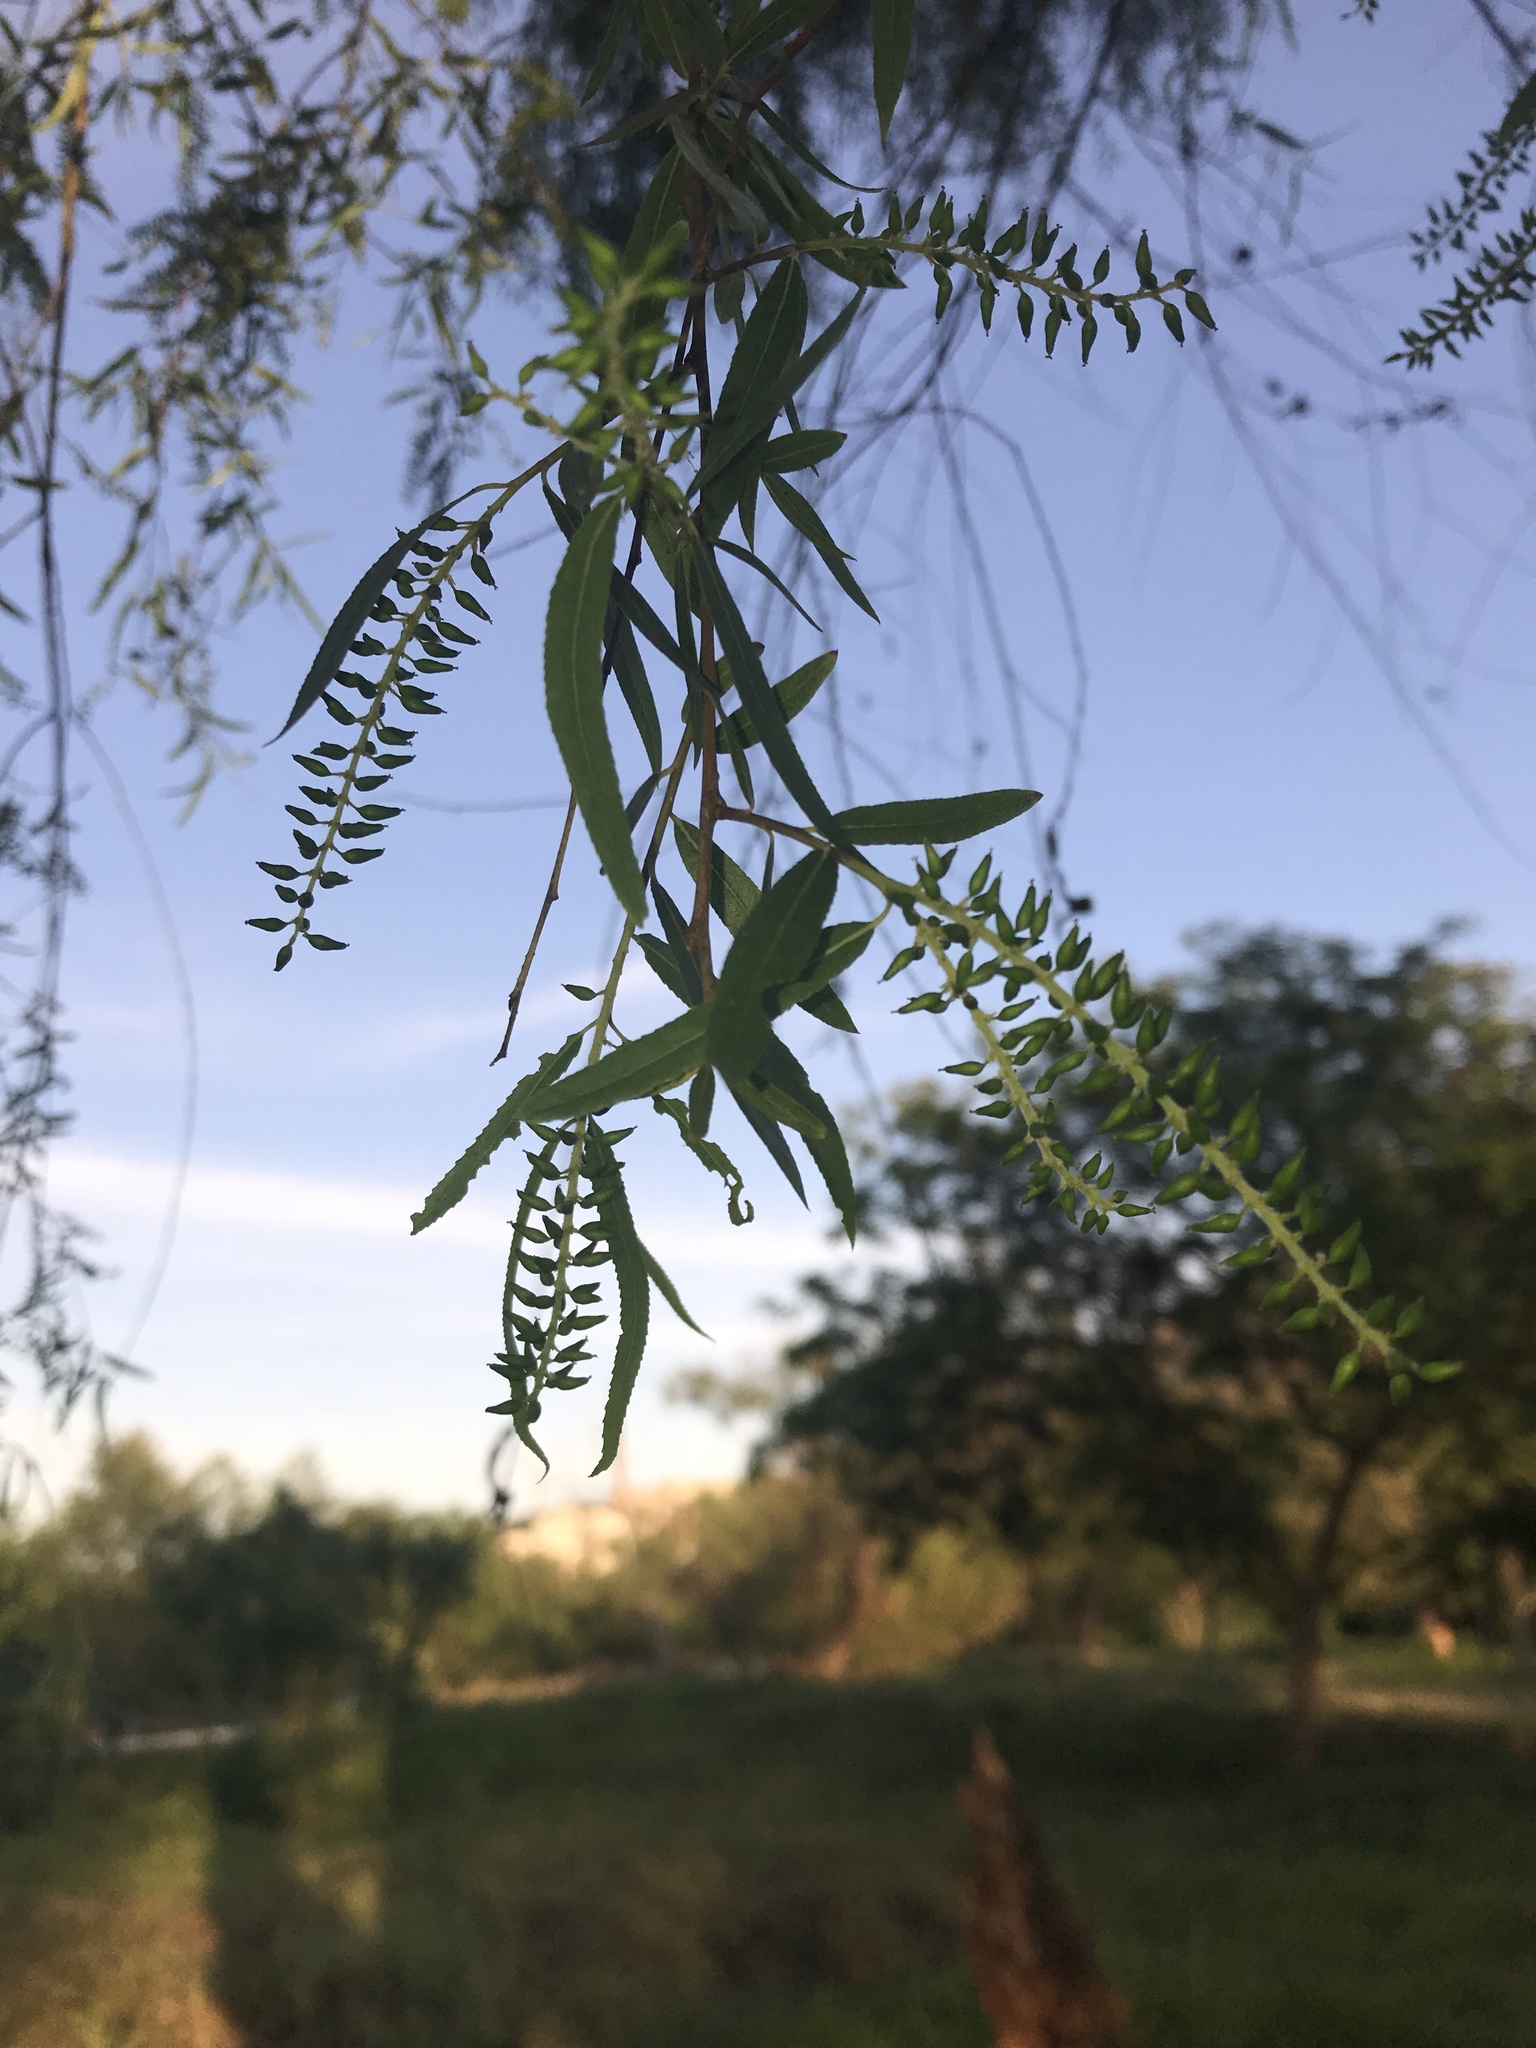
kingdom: Plantae
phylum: Tracheophyta
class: Magnoliopsida
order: Malpighiales
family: Salicaceae
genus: Salix
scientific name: Salix nigra
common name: Black willow
